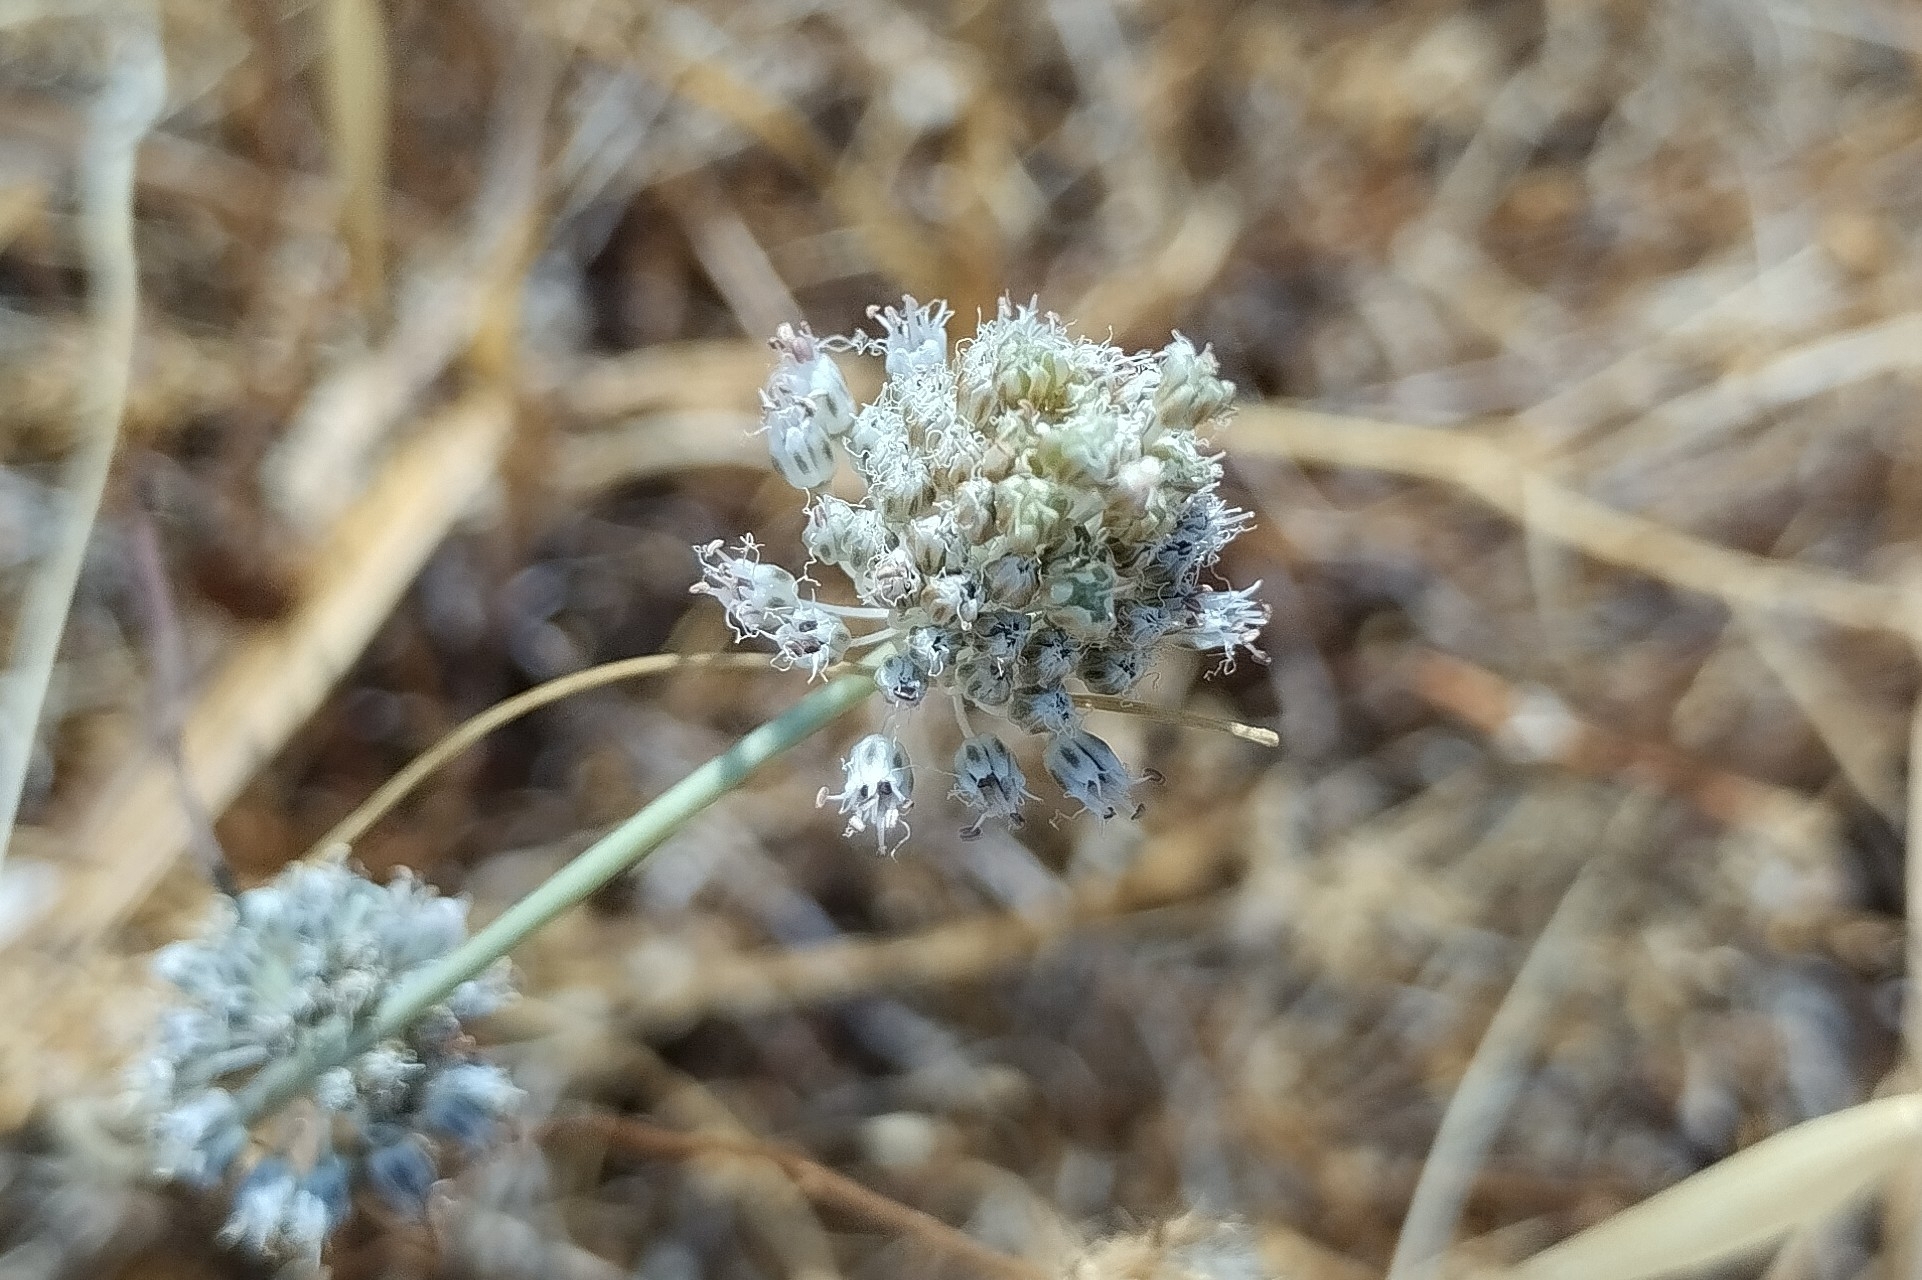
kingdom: Plantae
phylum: Tracheophyta
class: Liliopsida
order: Asparagales
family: Amaryllidaceae
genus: Allium
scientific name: Allium guttatum
